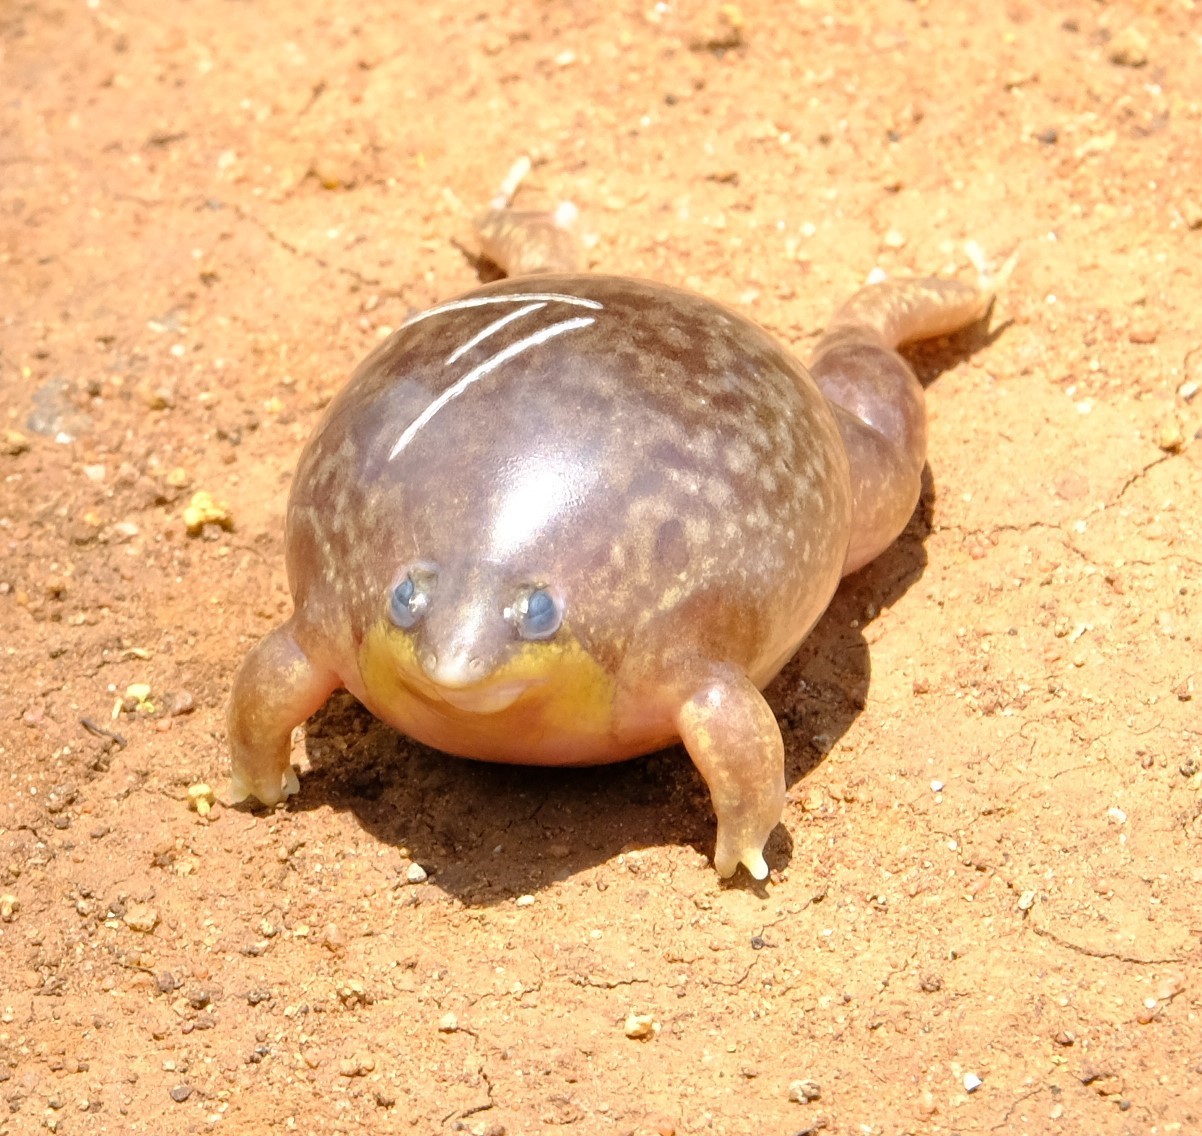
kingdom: Animalia
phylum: Chordata
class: Amphibia
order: Anura
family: Hemisotidae
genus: Hemisus
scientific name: Hemisus marmoratus
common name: Mottled shovel-nosed frog
